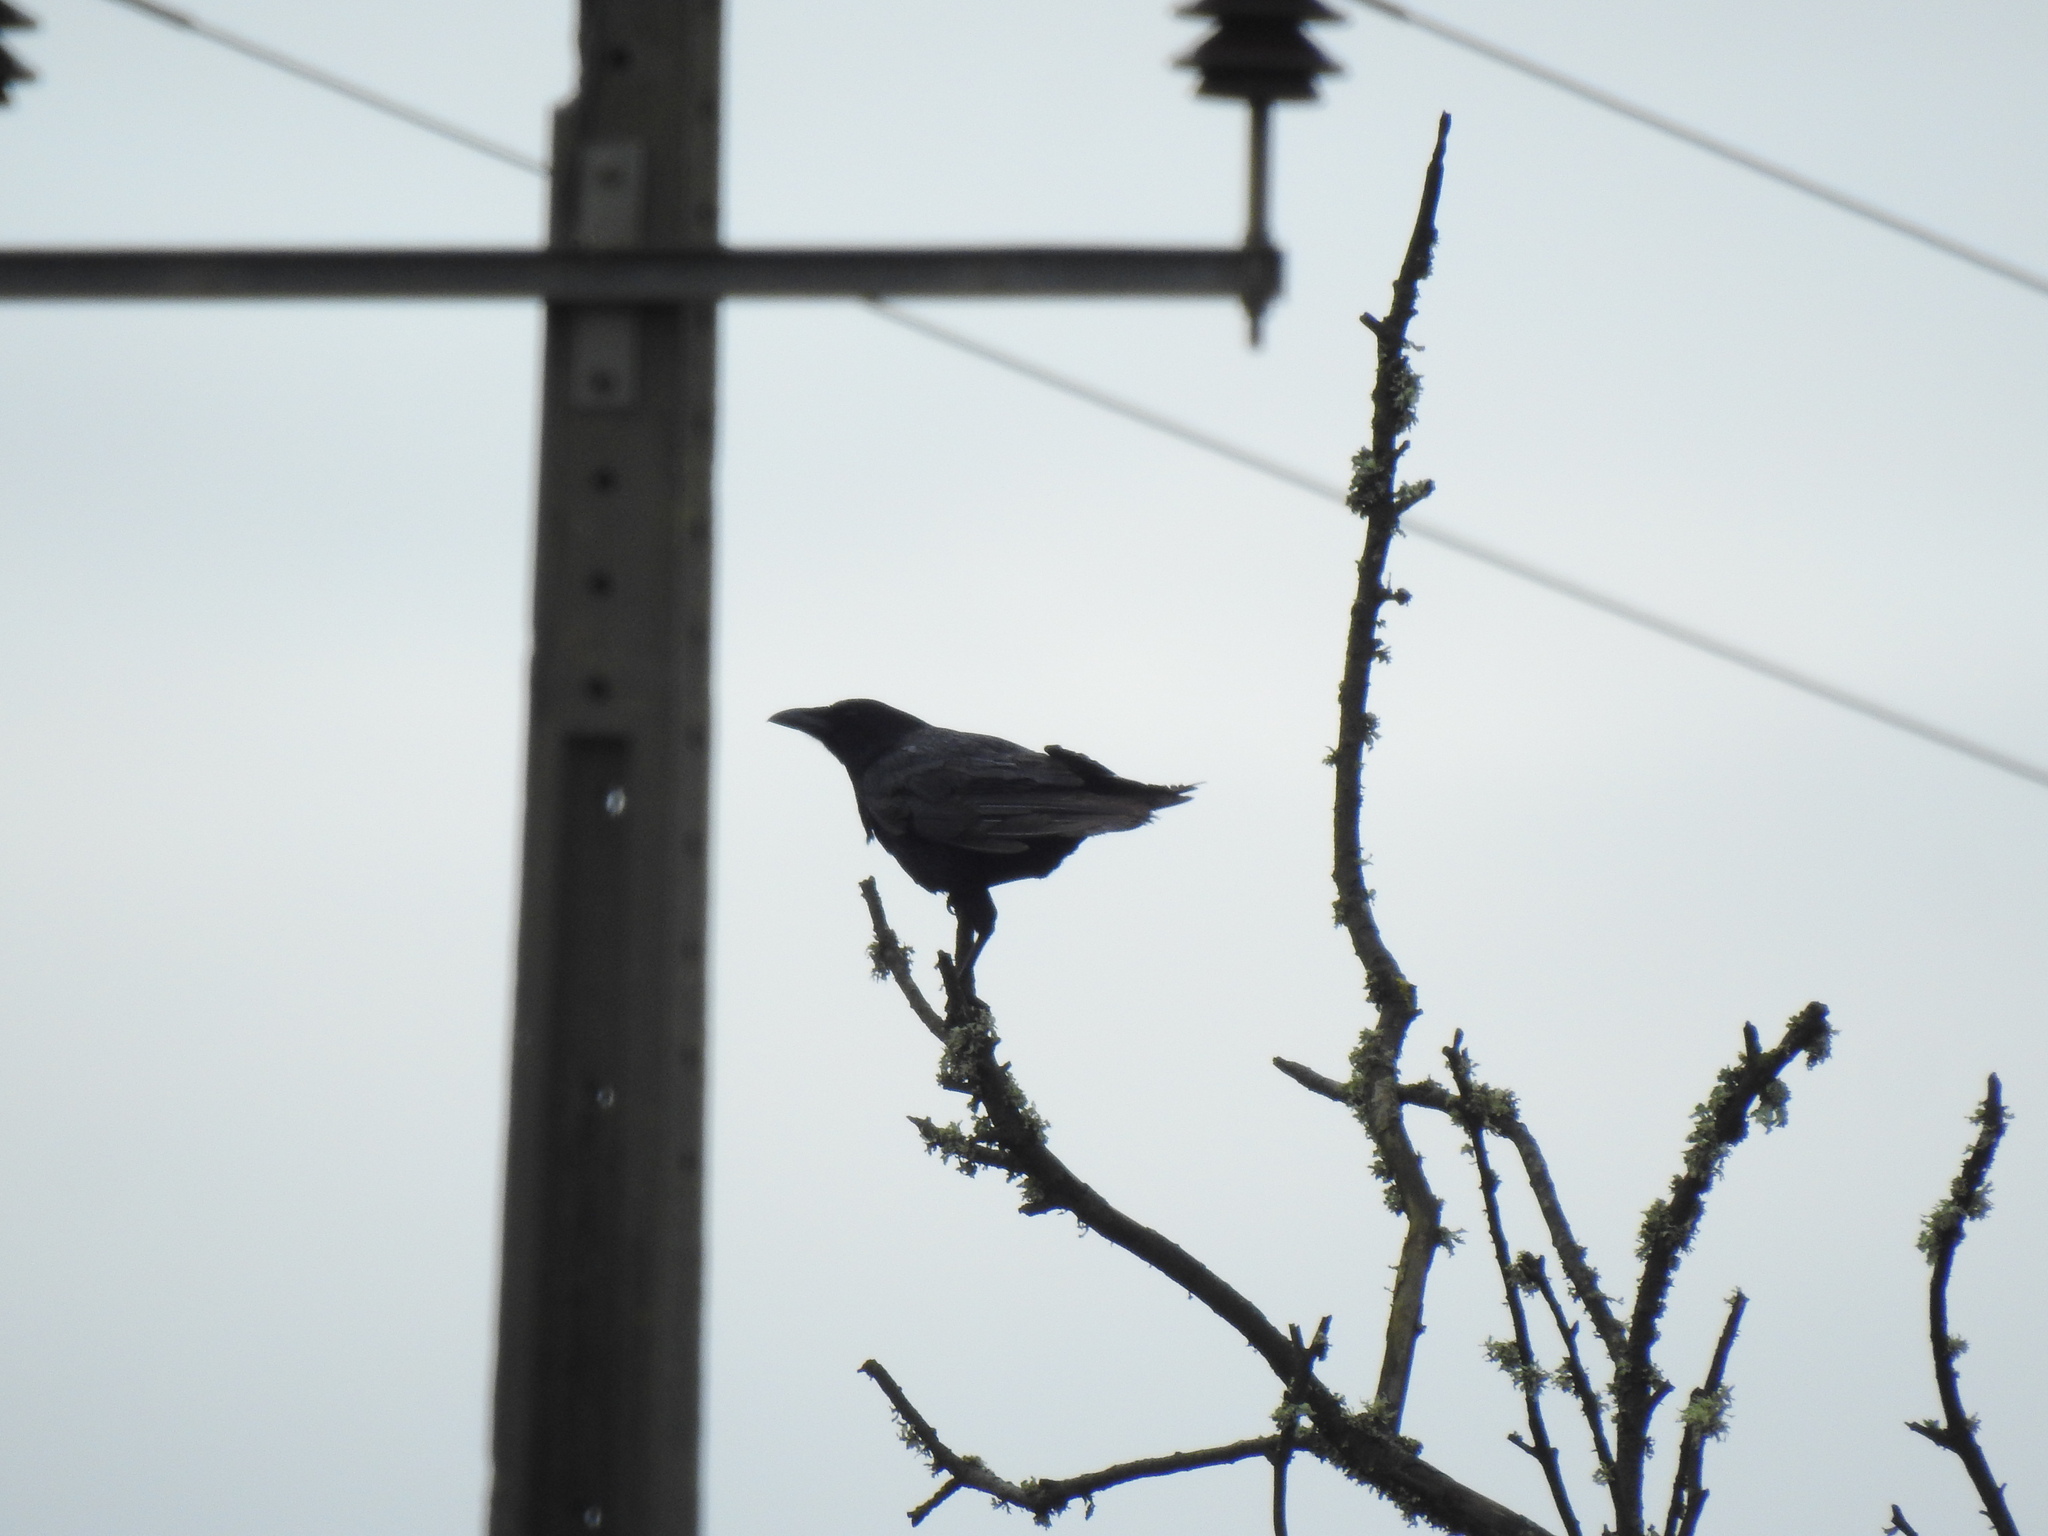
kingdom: Animalia
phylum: Chordata
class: Aves
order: Passeriformes
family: Corvidae
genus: Corvus
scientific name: Corvus corone
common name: Carrion crow
